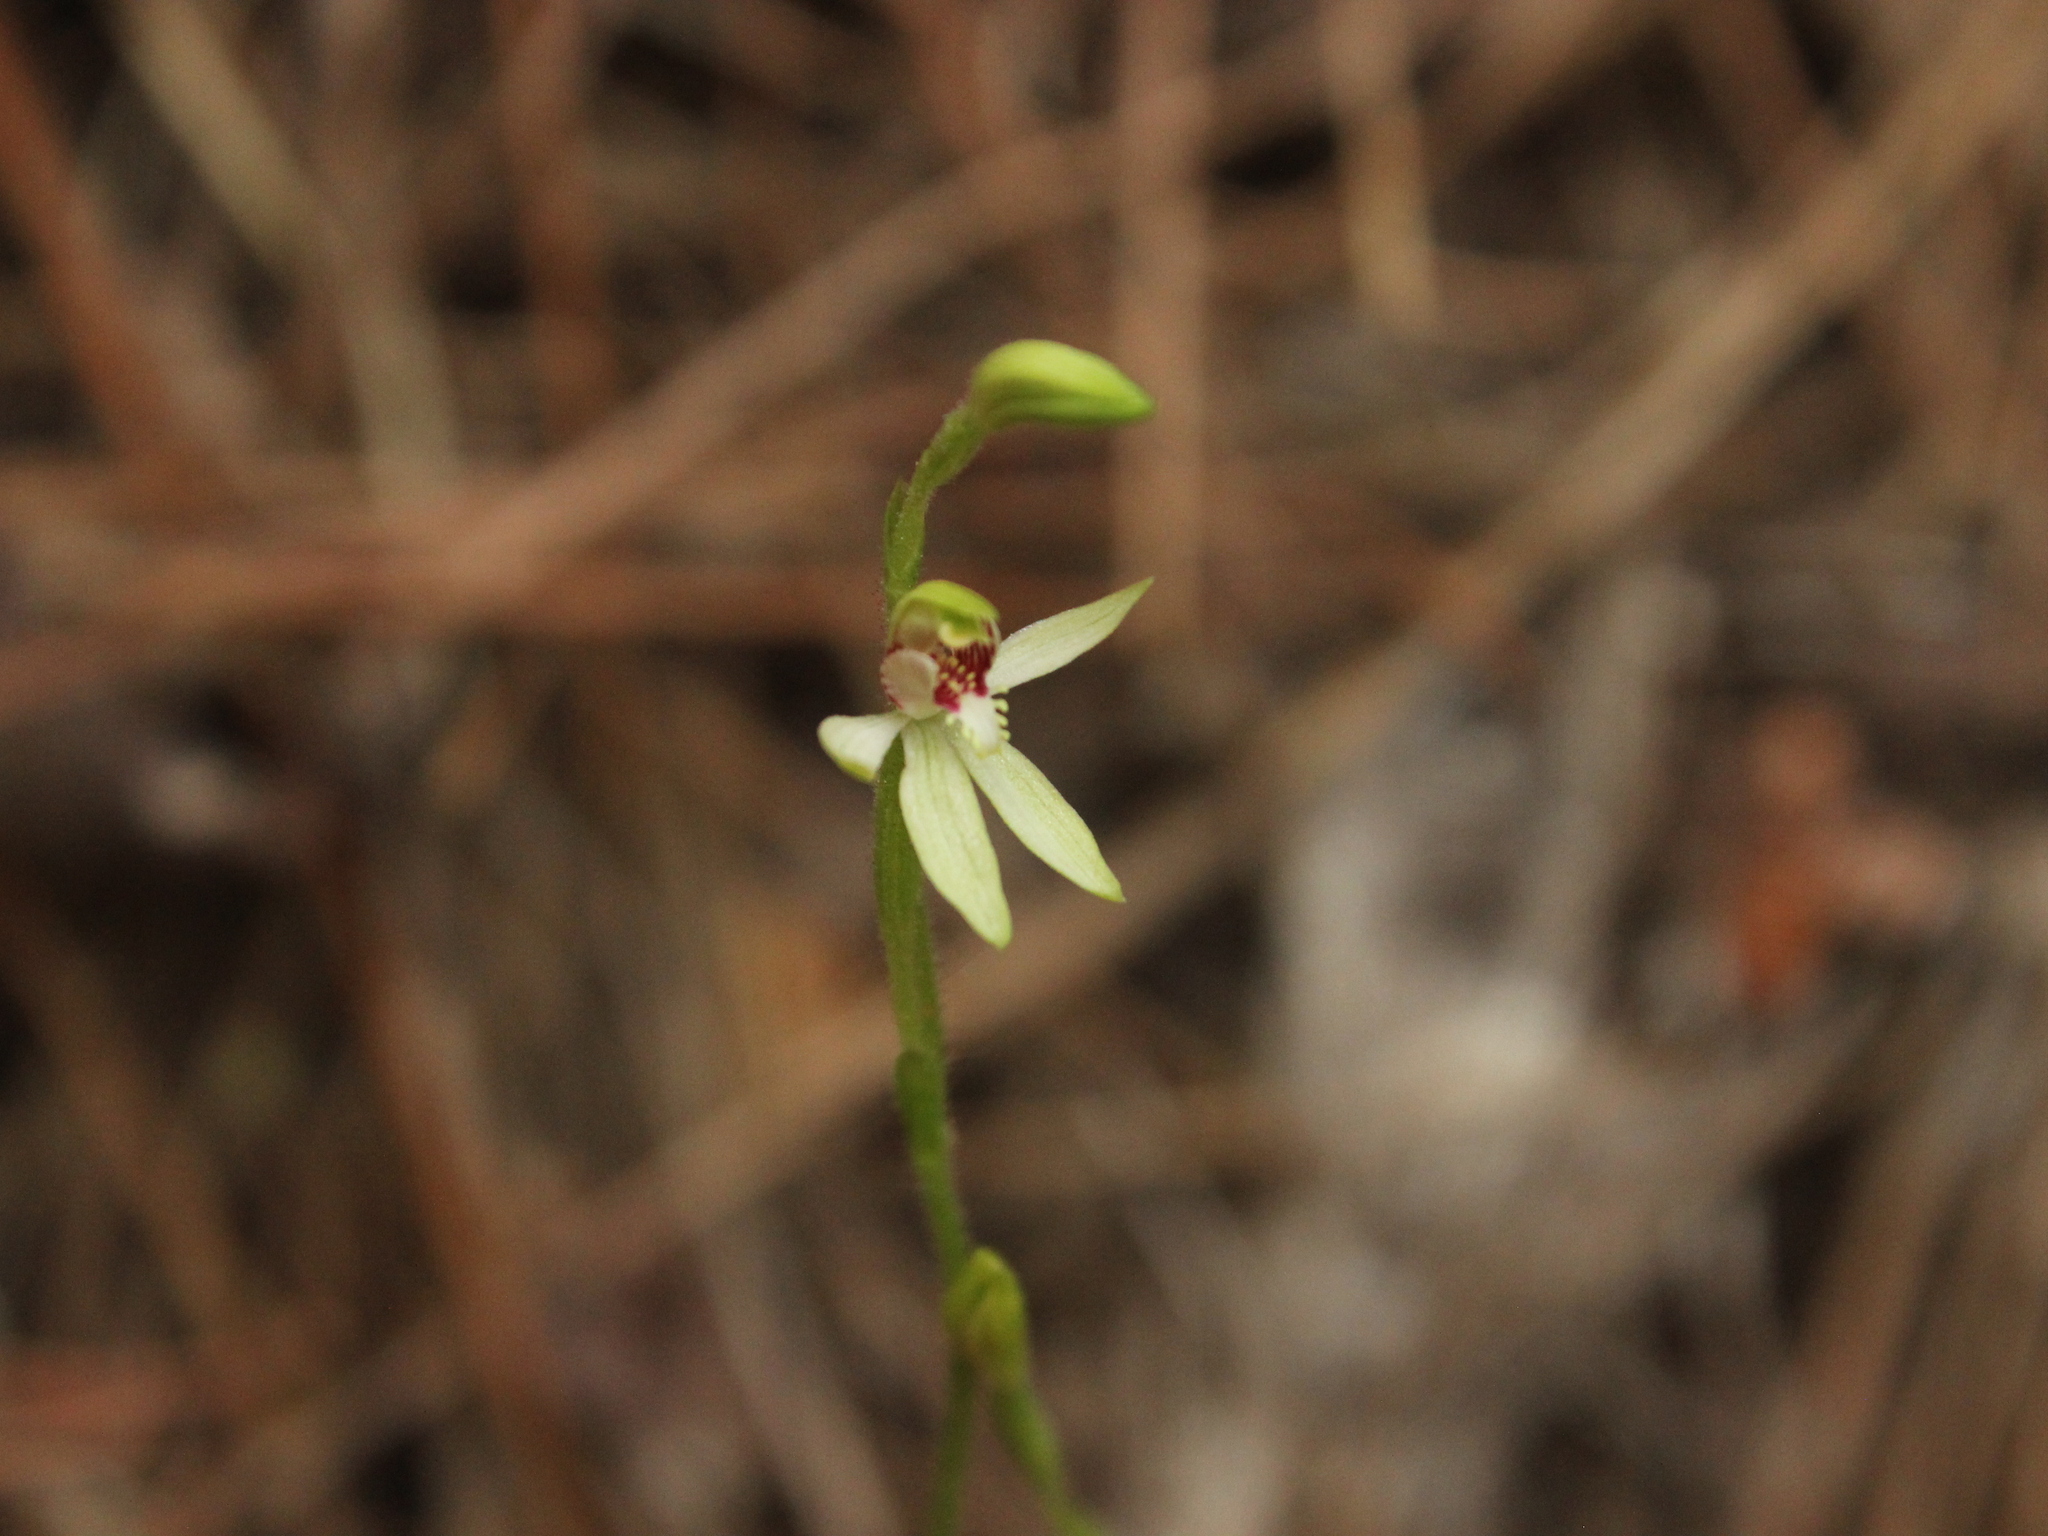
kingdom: Plantae
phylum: Tracheophyta
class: Liliopsida
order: Asparagales
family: Orchidaceae
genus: Caladenia
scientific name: Caladenia chlorostyla
